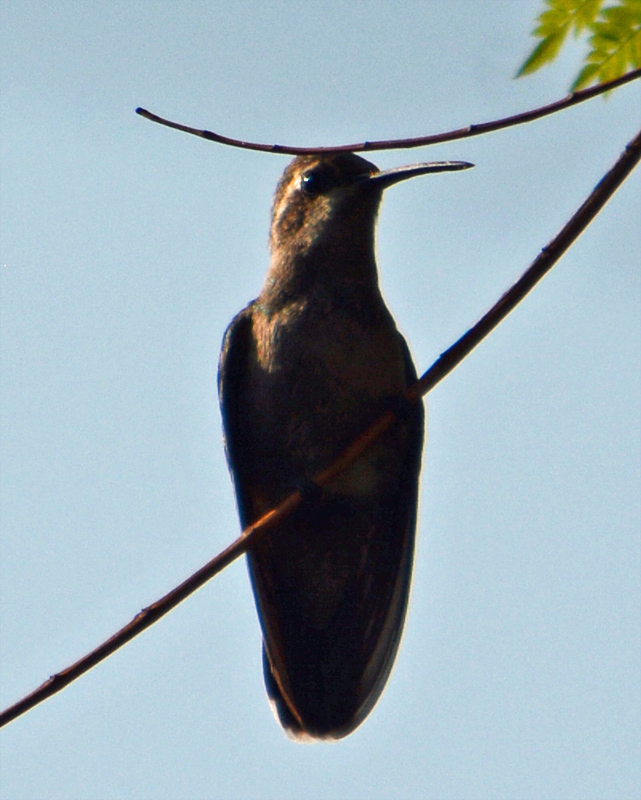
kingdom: Animalia
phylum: Chordata
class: Aves
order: Apodiformes
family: Trochilidae
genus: Cynanthus
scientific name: Cynanthus latirostris
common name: Broad-billed hummingbird
